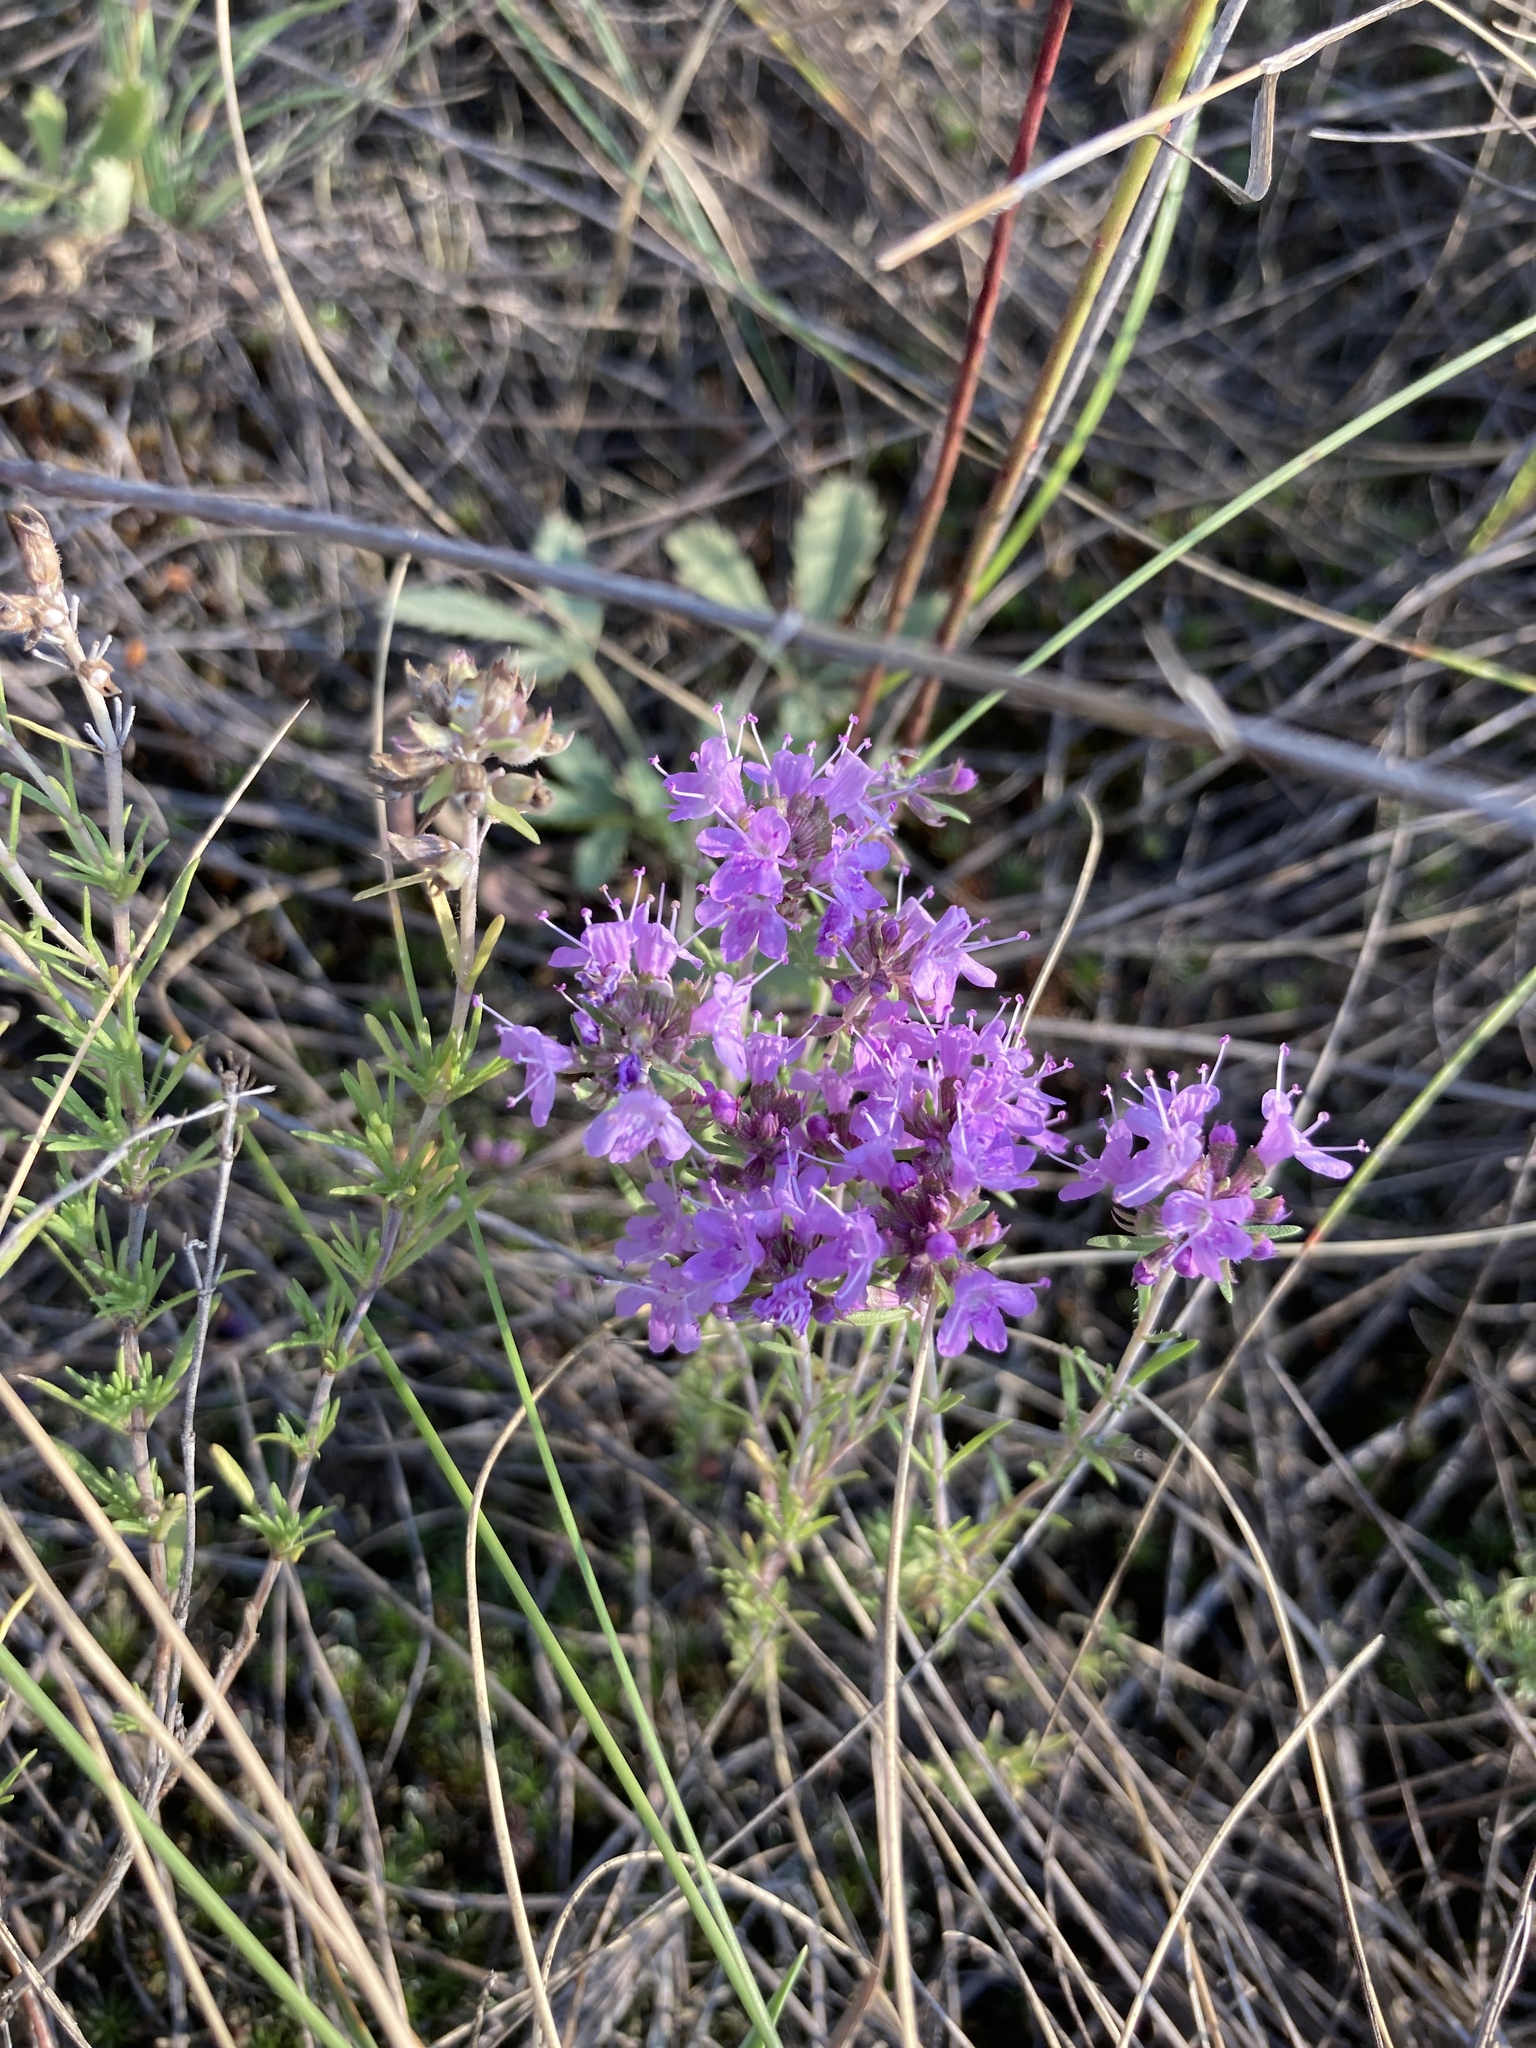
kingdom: Plantae
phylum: Tracheophyta
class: Magnoliopsida
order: Lamiales
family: Lamiaceae
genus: Thymus
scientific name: Thymus pallasianus
